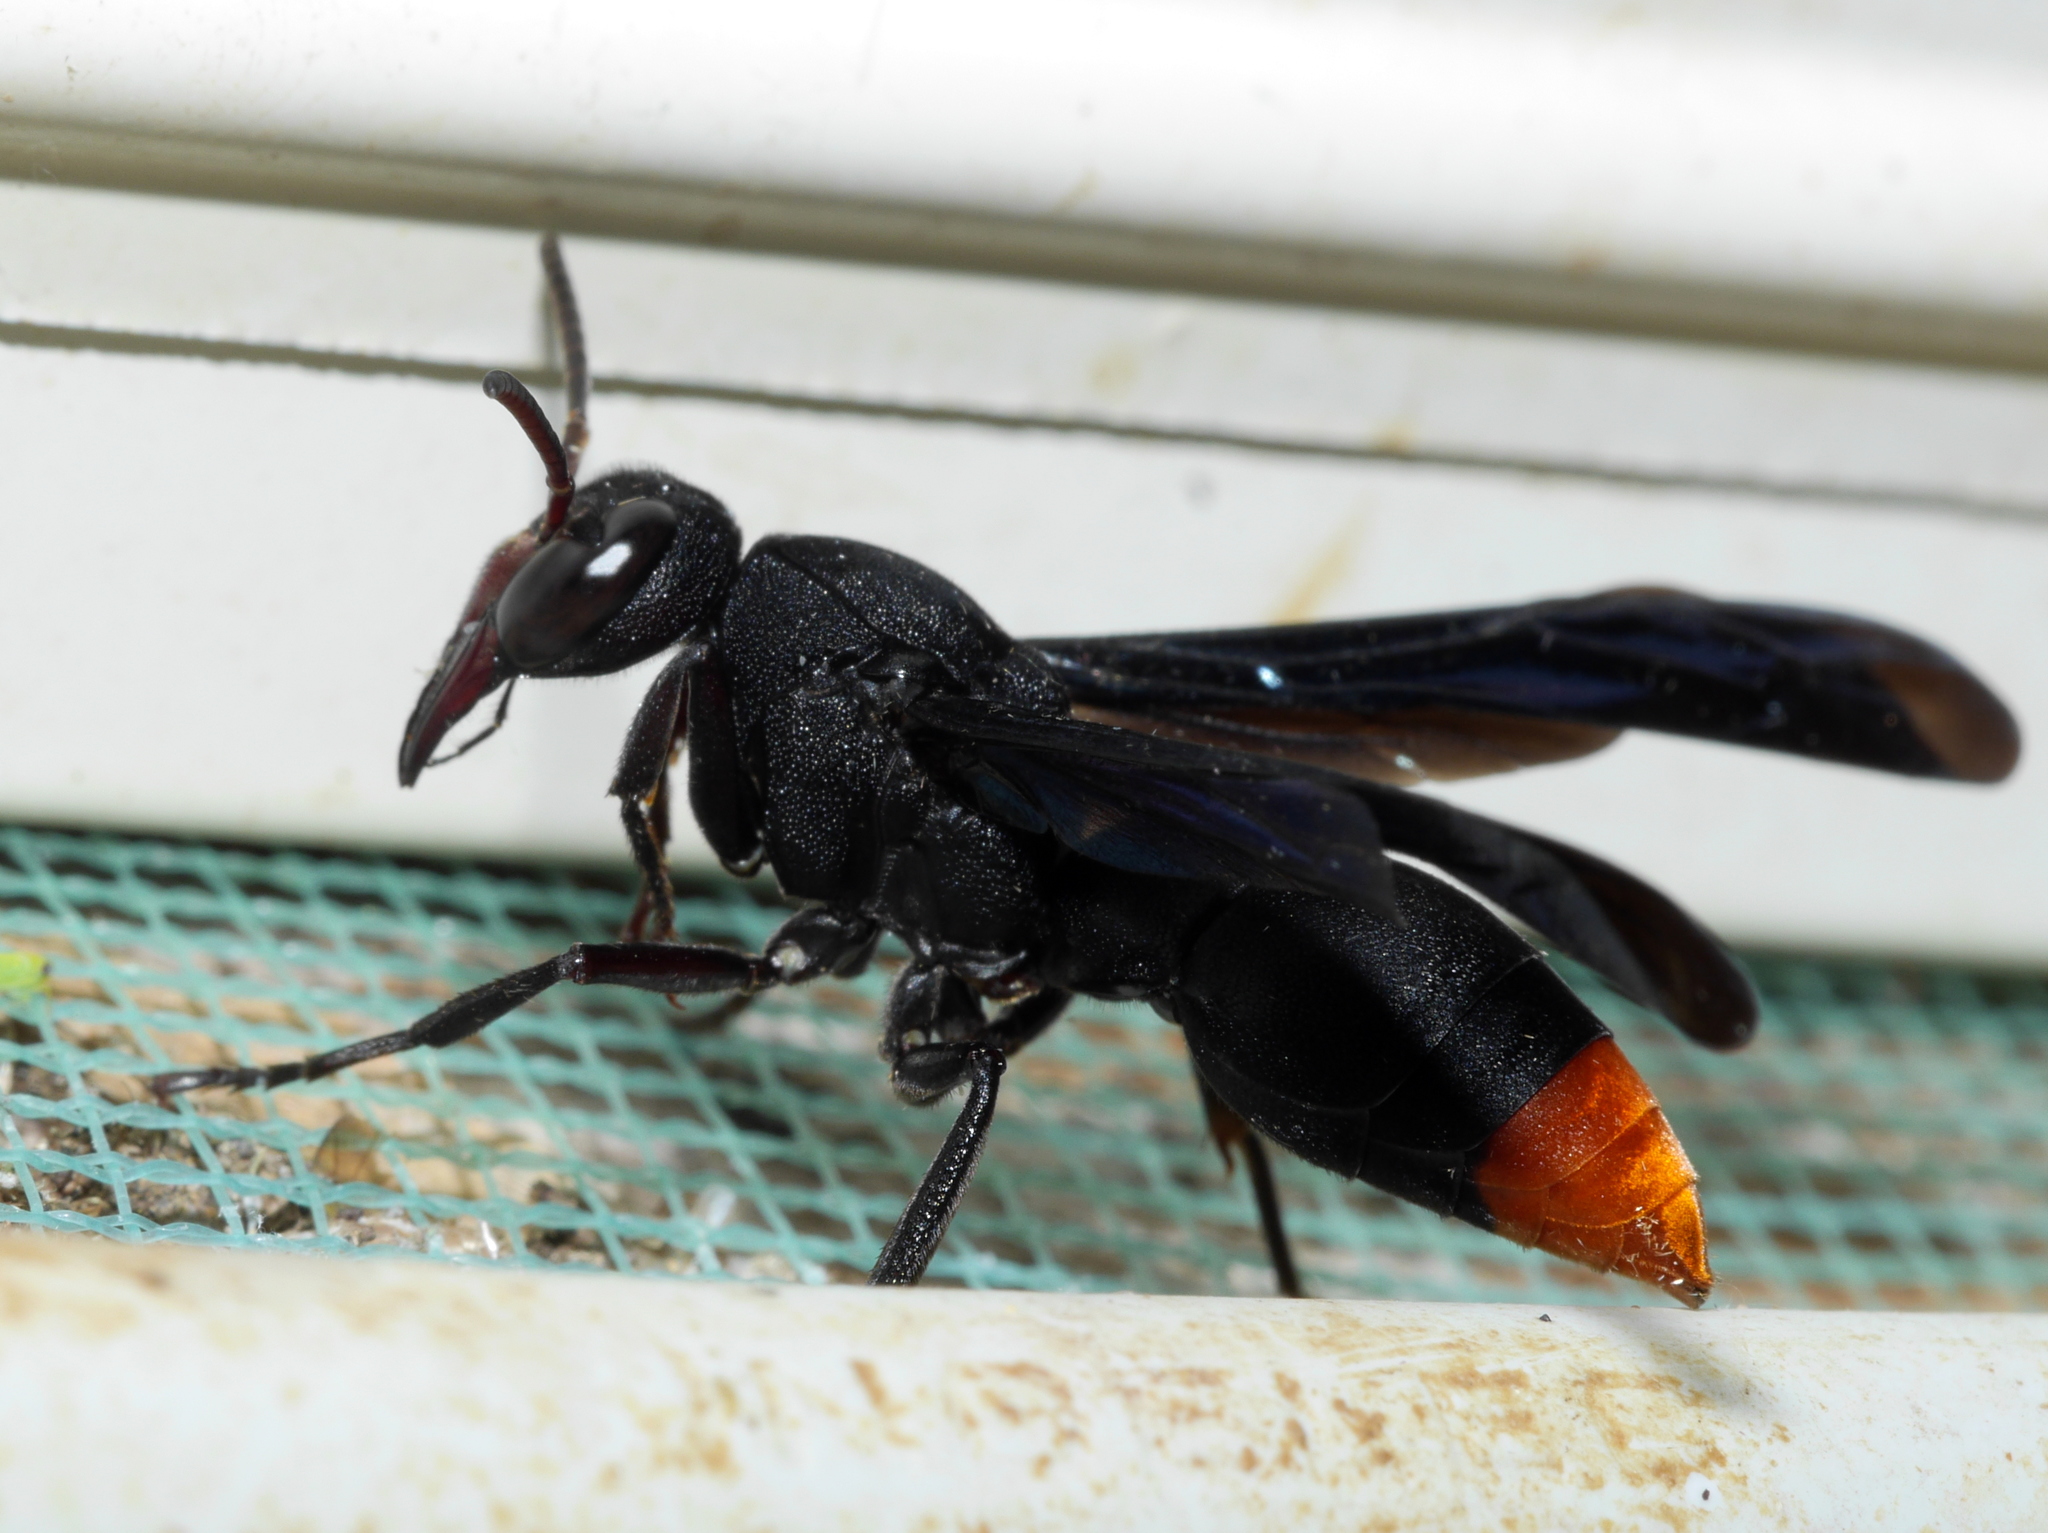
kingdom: Animalia
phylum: Arthropoda
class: Insecta
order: Hymenoptera
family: Eumenidae
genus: Anterhynchium
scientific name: Anterhynchium synagroide
